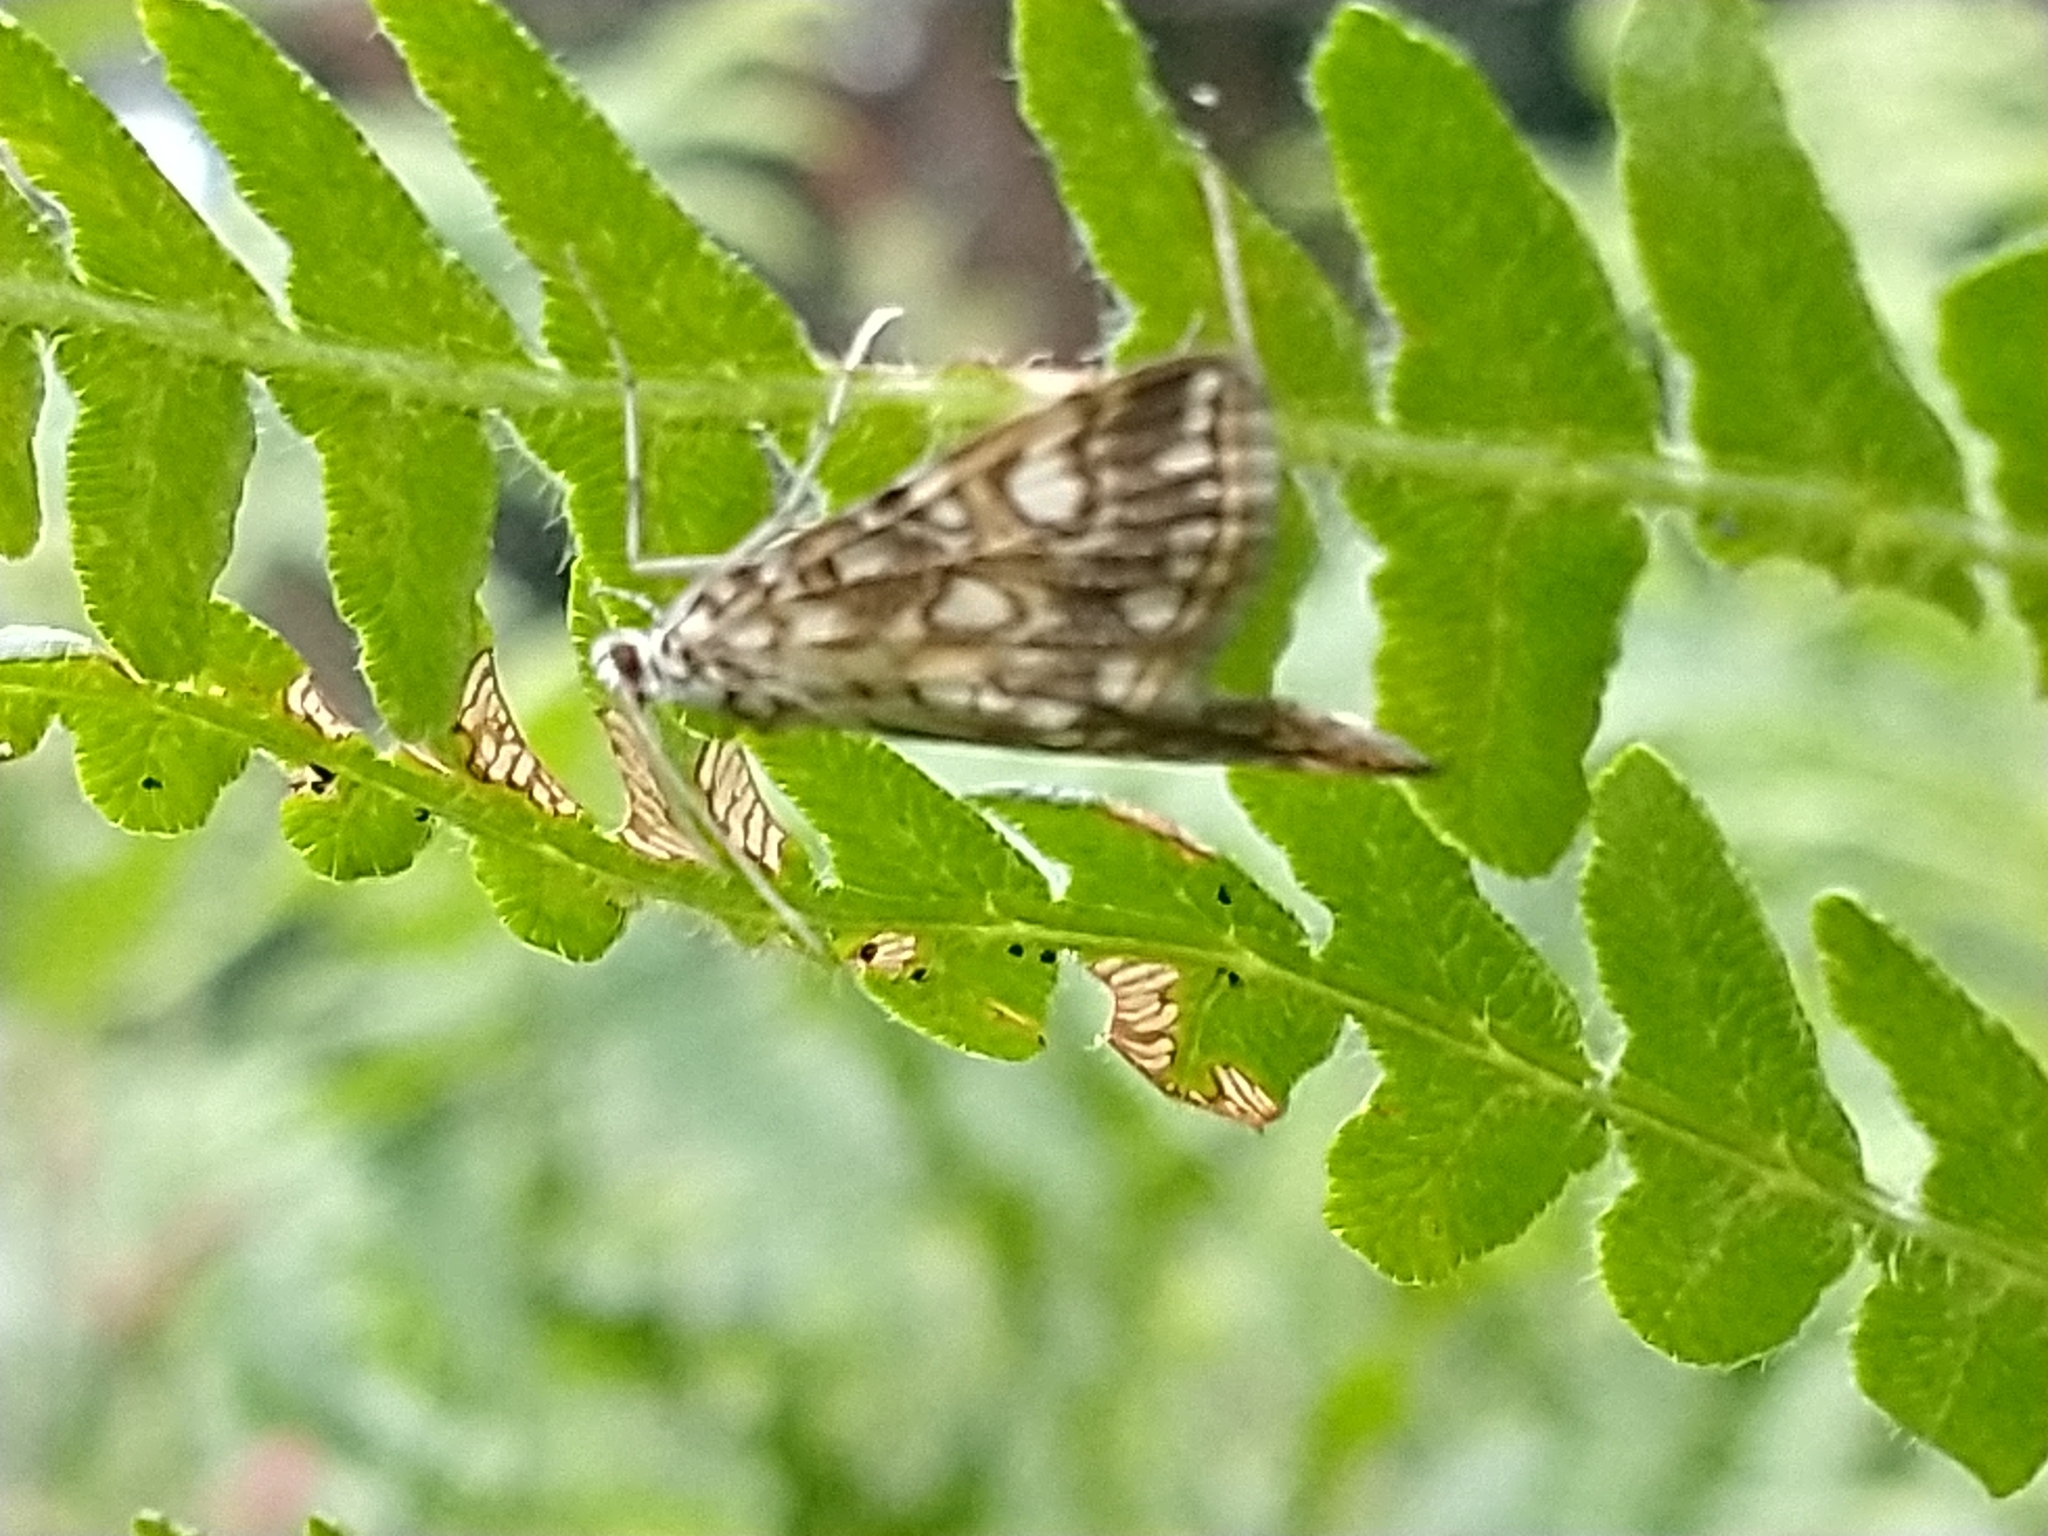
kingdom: Animalia
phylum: Arthropoda
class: Insecta
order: Lepidoptera
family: Crambidae
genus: Elophila
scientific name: Elophila nymphaeata
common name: Brown china-mark
